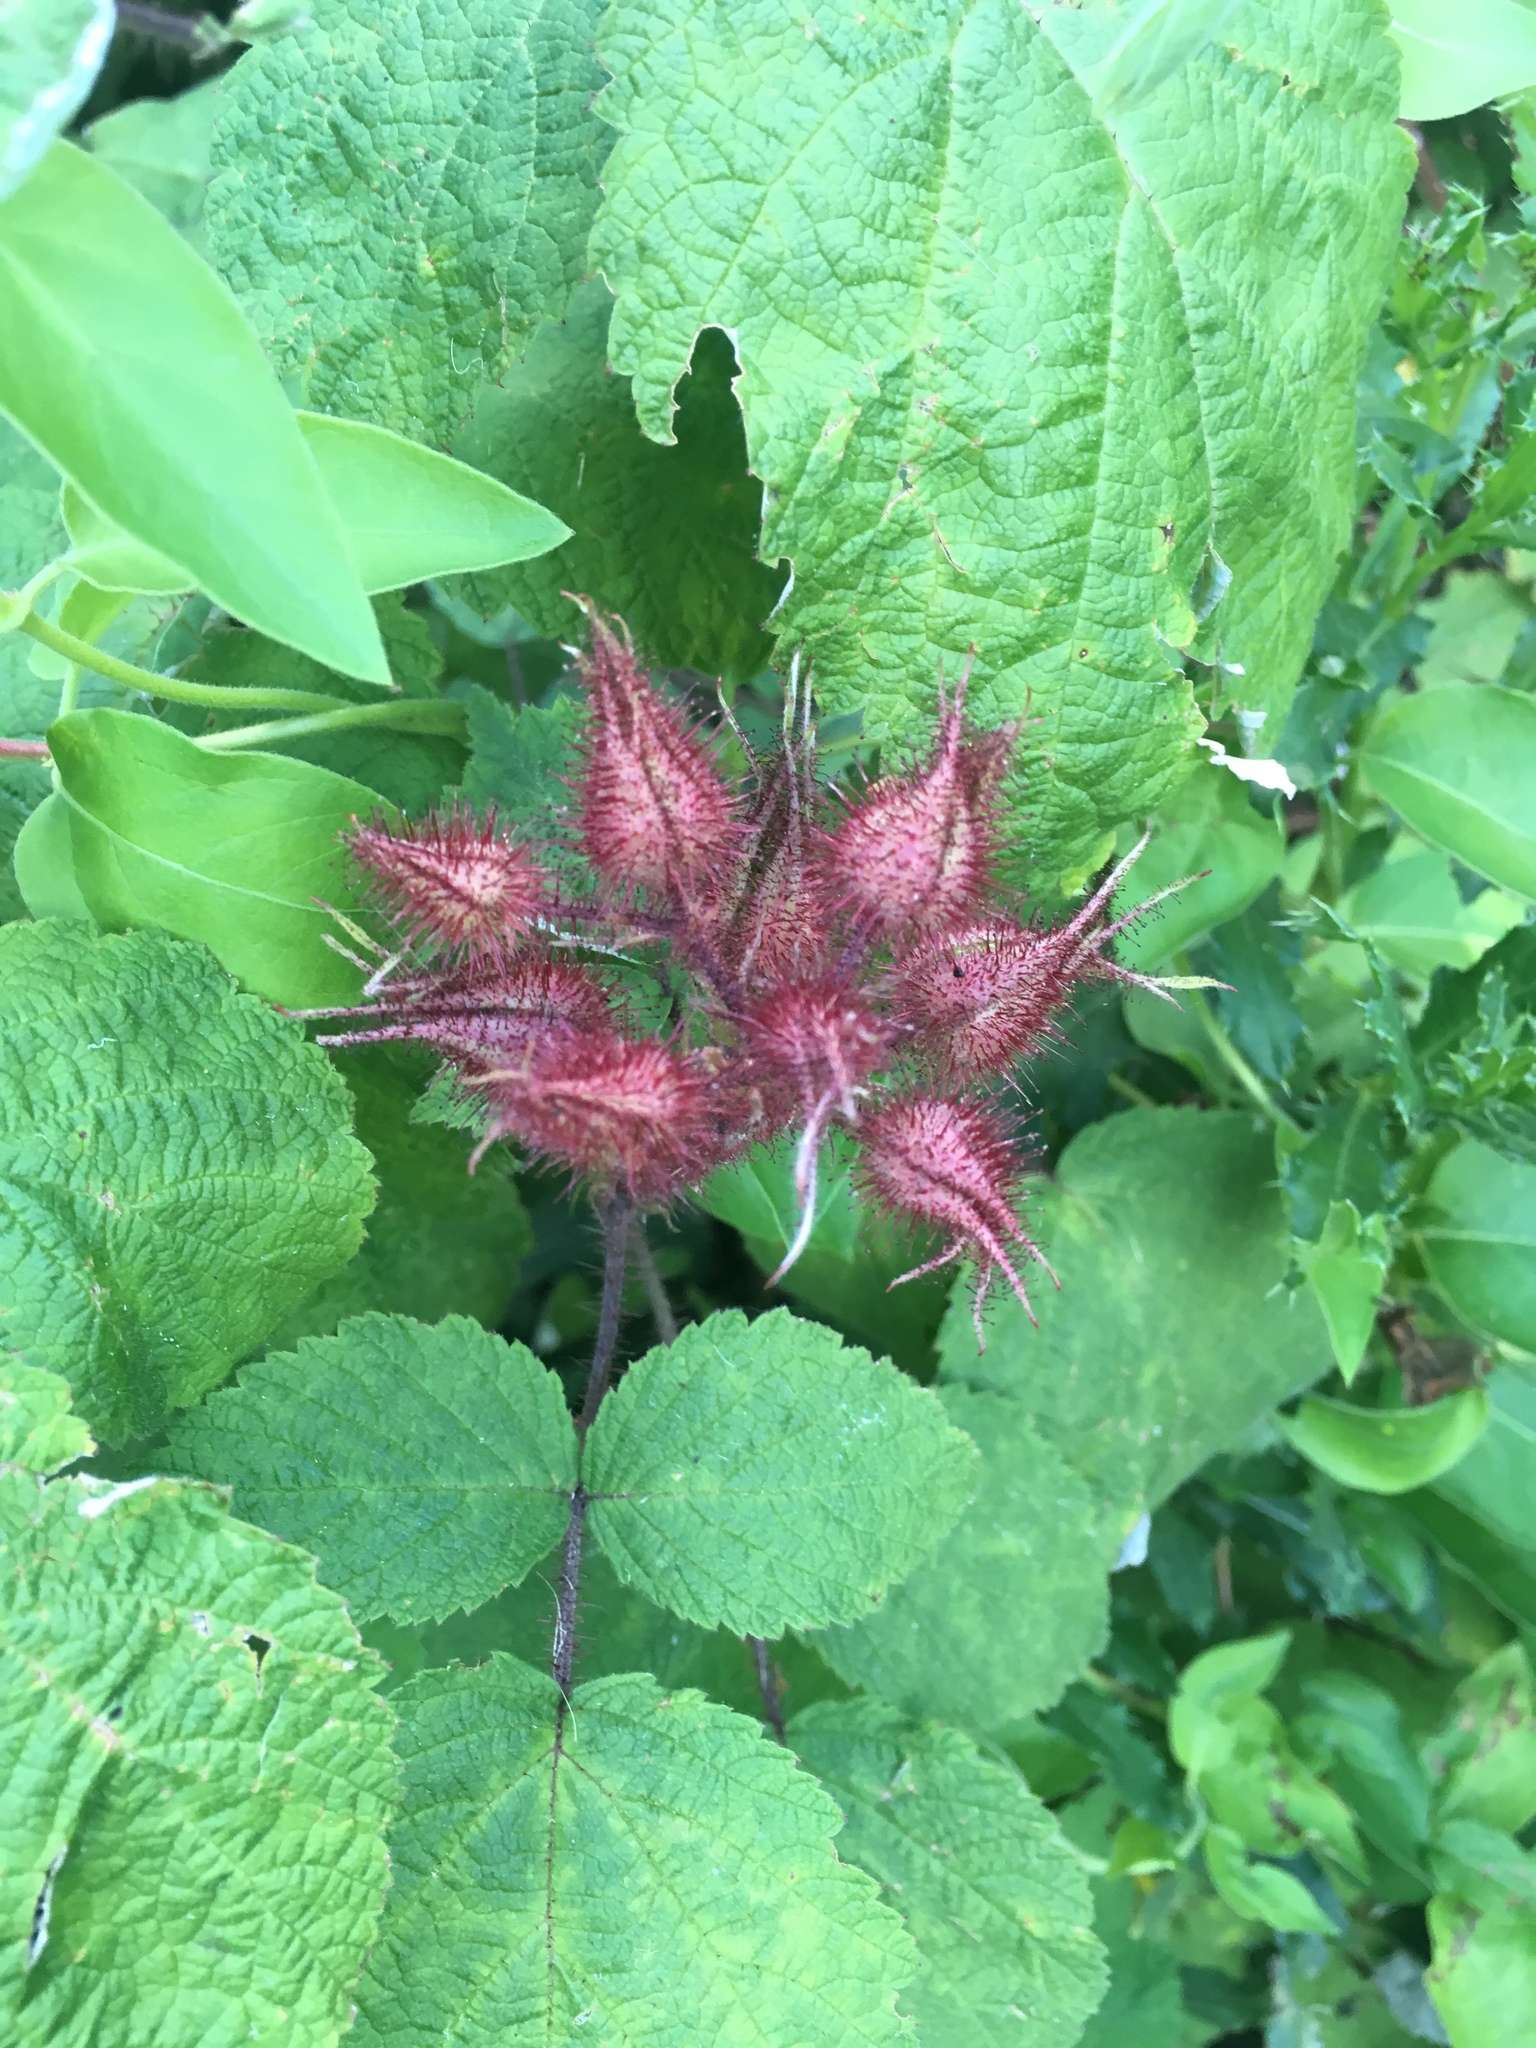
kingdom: Plantae
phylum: Tracheophyta
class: Magnoliopsida
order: Rosales
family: Rosaceae
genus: Rubus
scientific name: Rubus phoenicolasius
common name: Japanese wineberry
